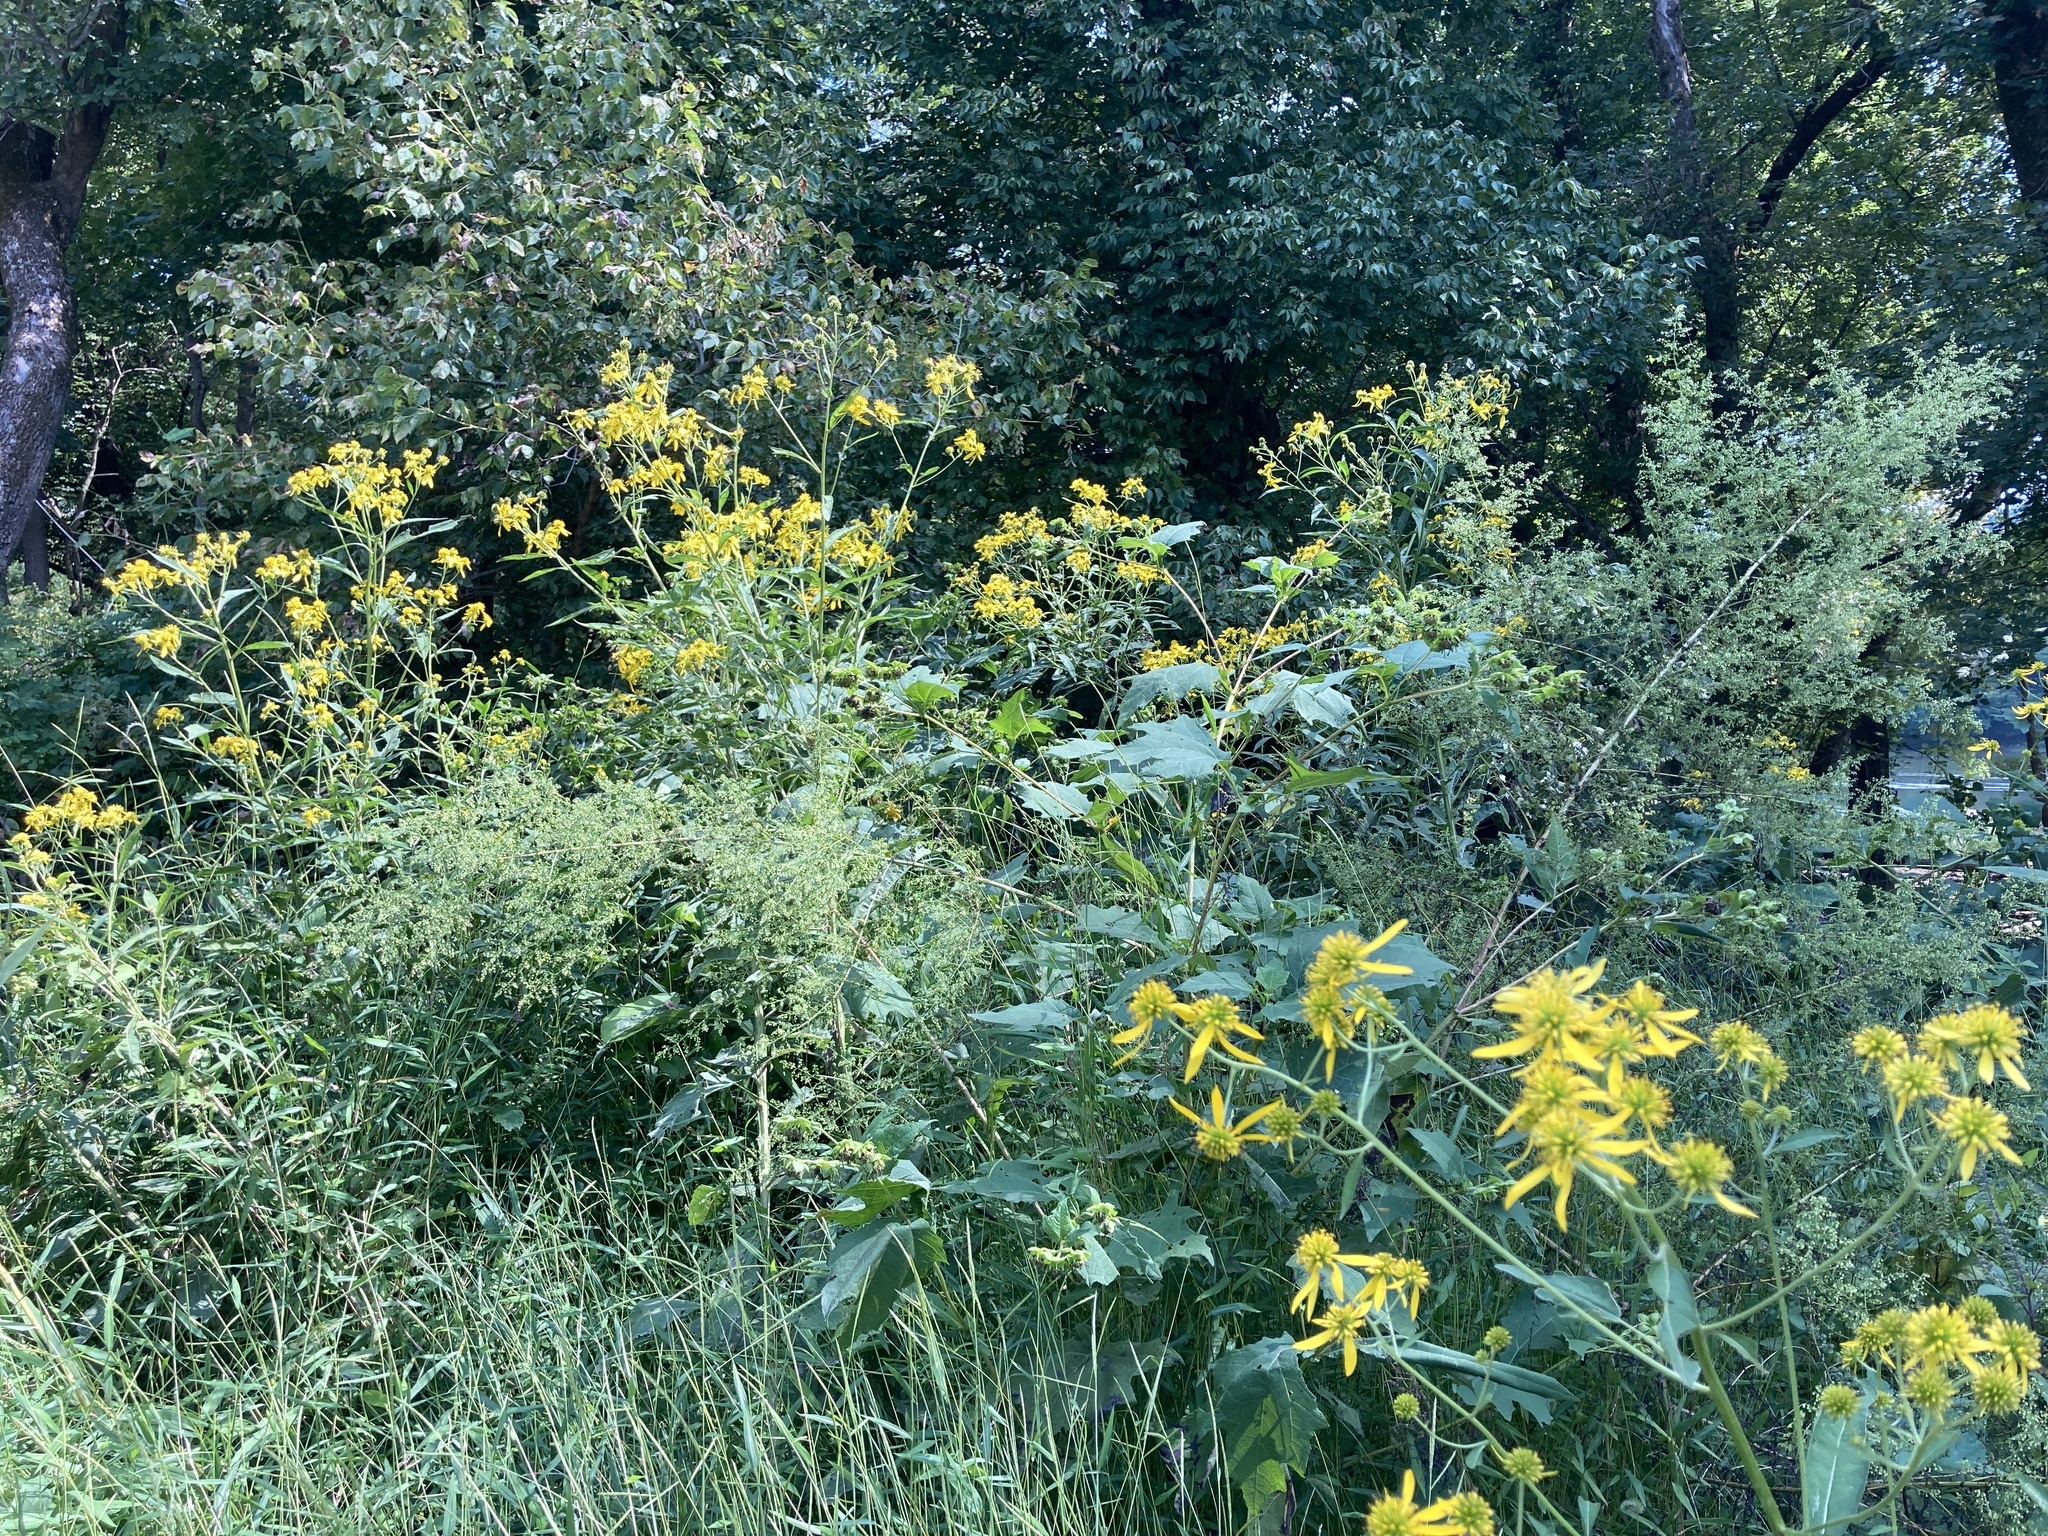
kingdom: Plantae
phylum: Tracheophyta
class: Magnoliopsida
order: Asterales
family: Asteraceae
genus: Verbesina
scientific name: Verbesina alternifolia
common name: Wingstem
